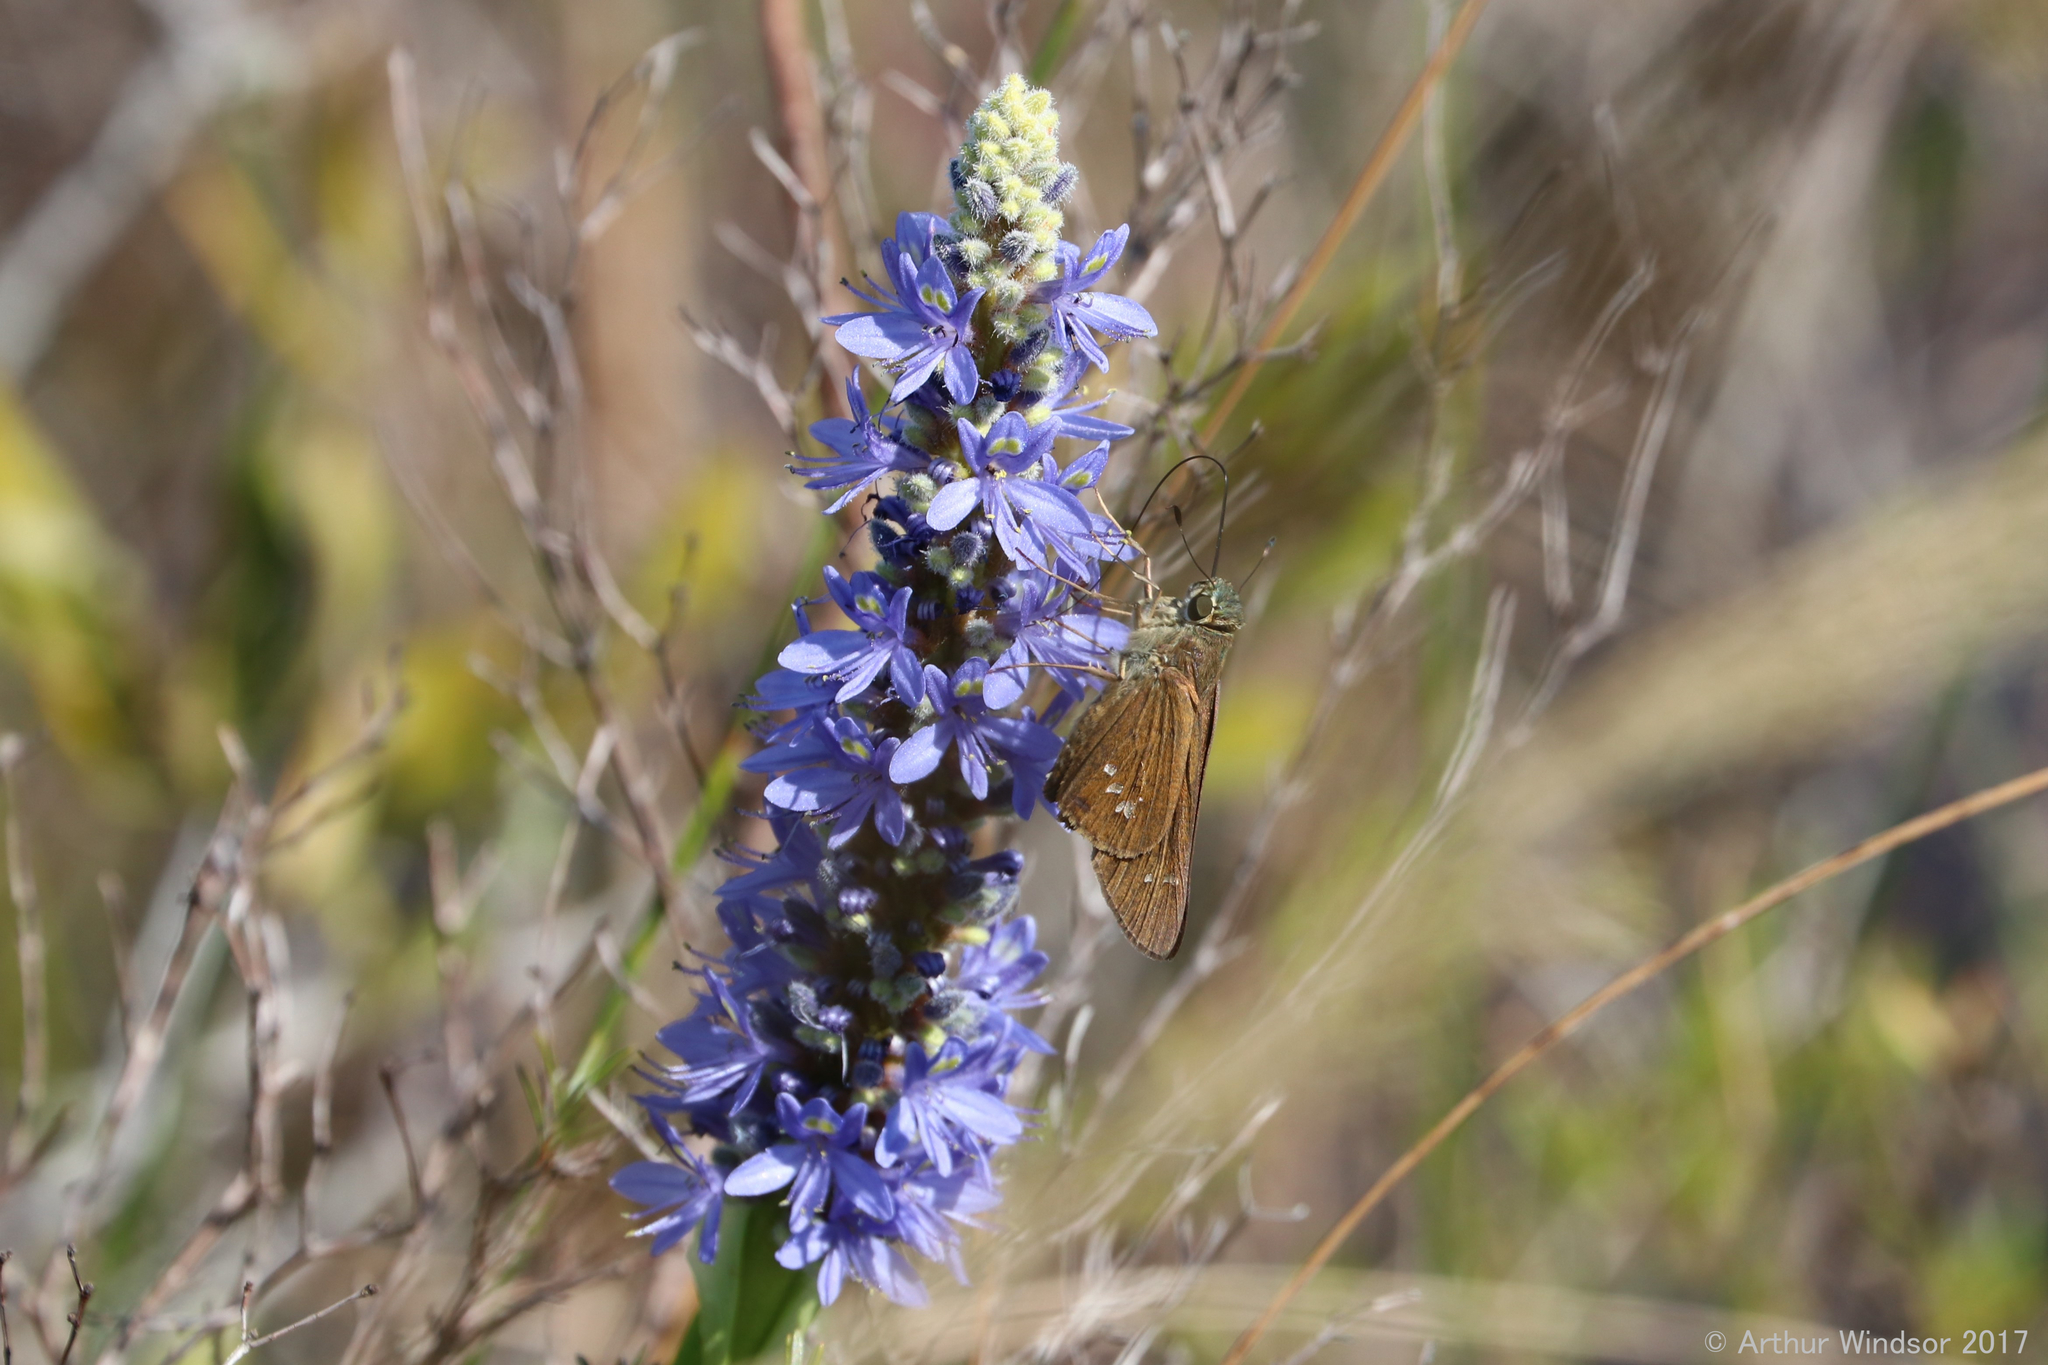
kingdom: Animalia
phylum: Arthropoda
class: Insecta
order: Lepidoptera
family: Hesperiidae
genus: Calpodes
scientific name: Calpodes ethlius
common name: Brazilian skipper
